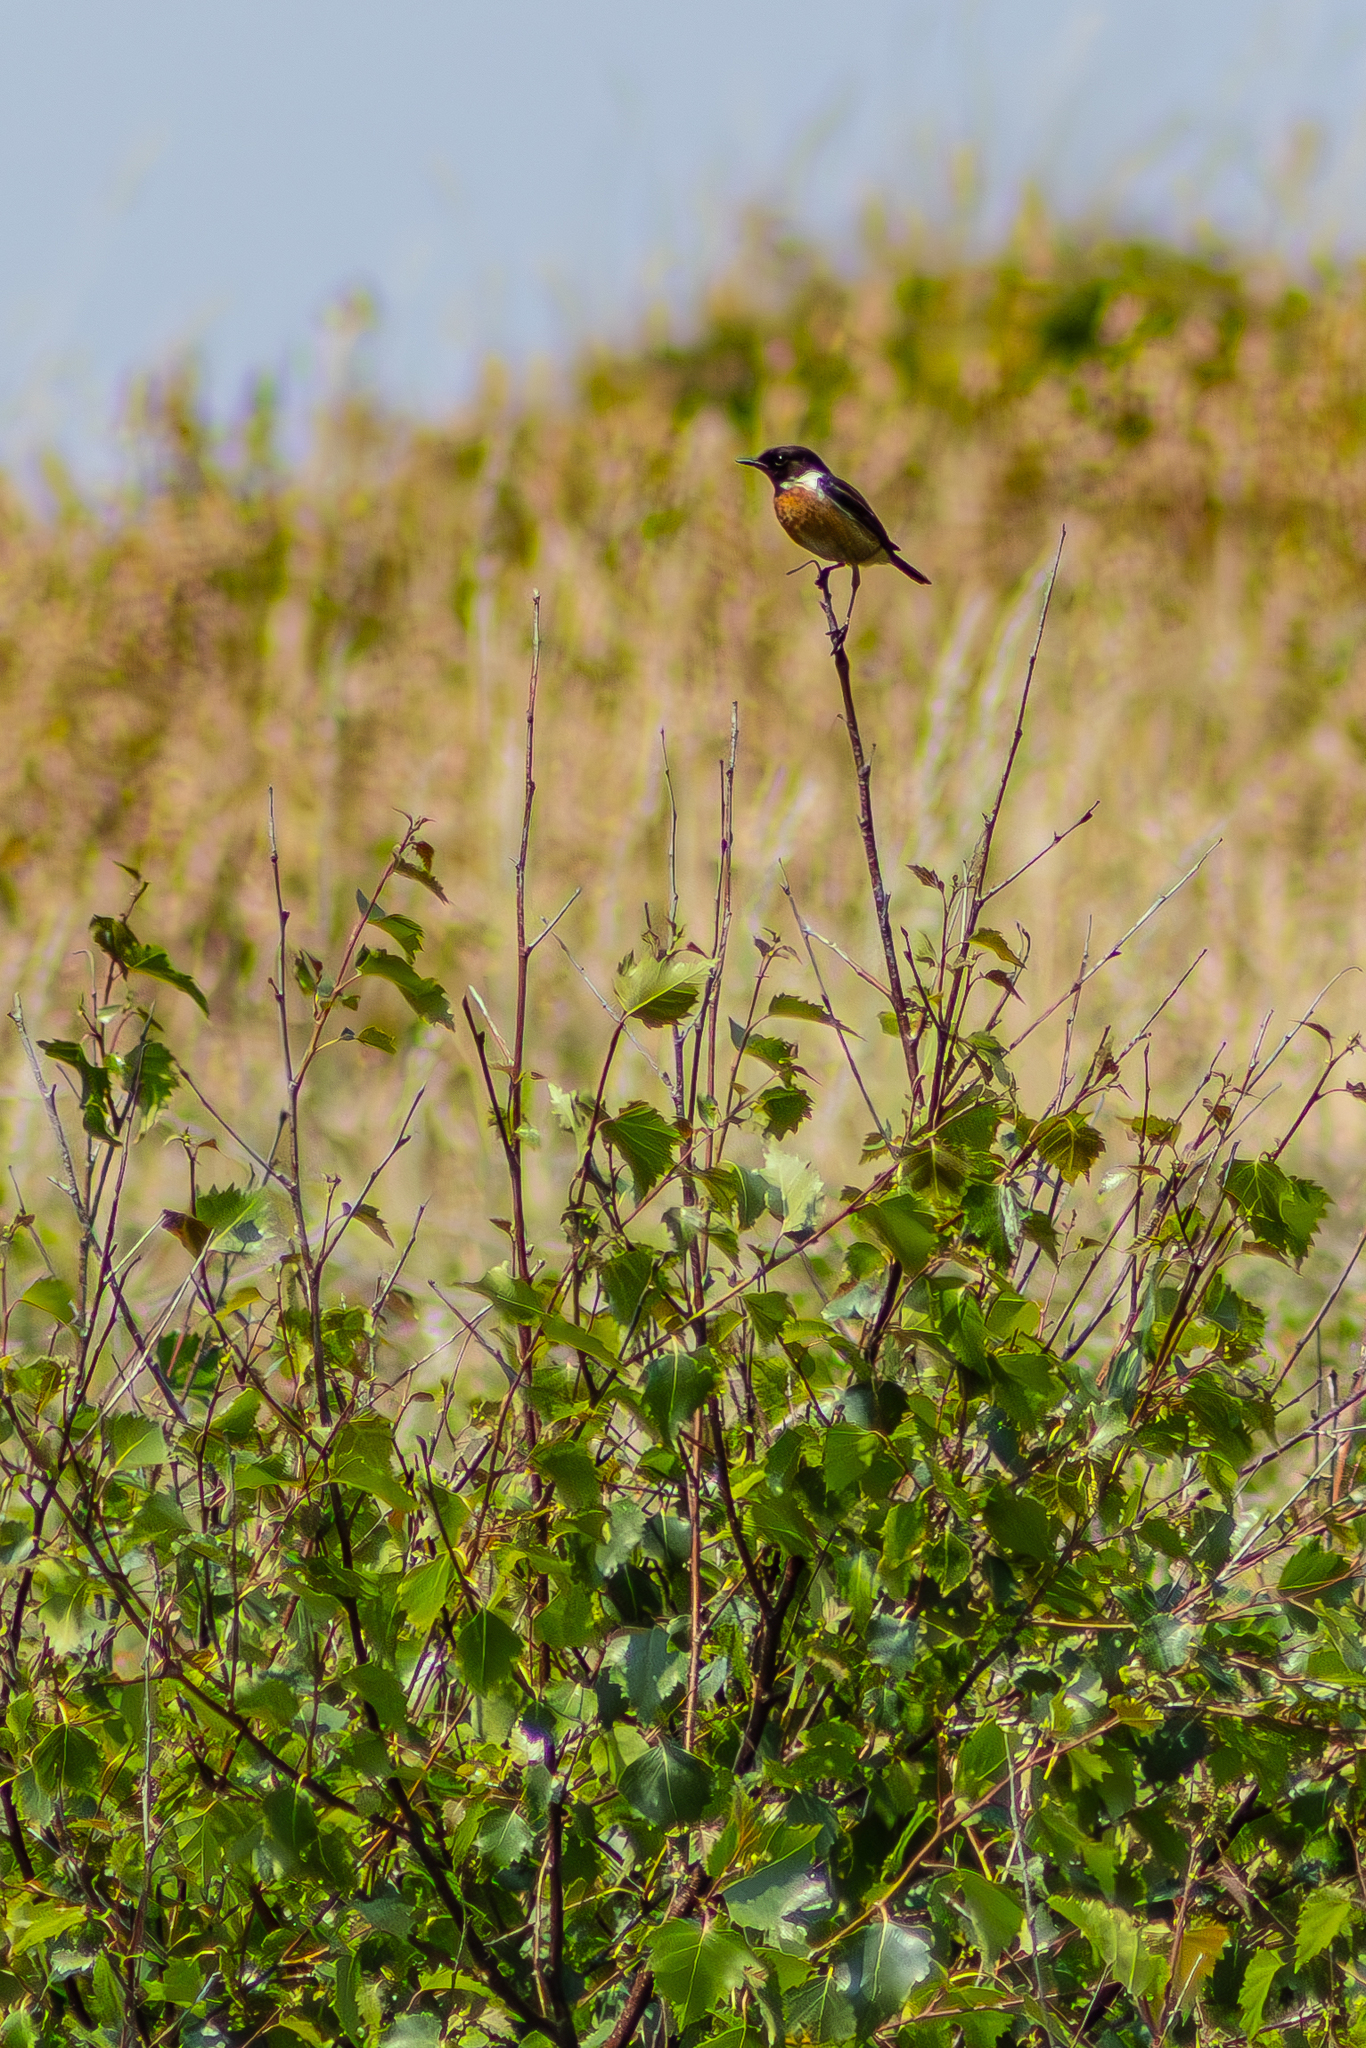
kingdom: Animalia
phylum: Chordata
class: Aves
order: Passeriformes
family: Muscicapidae
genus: Saxicola
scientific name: Saxicola rubicola
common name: European stonechat
